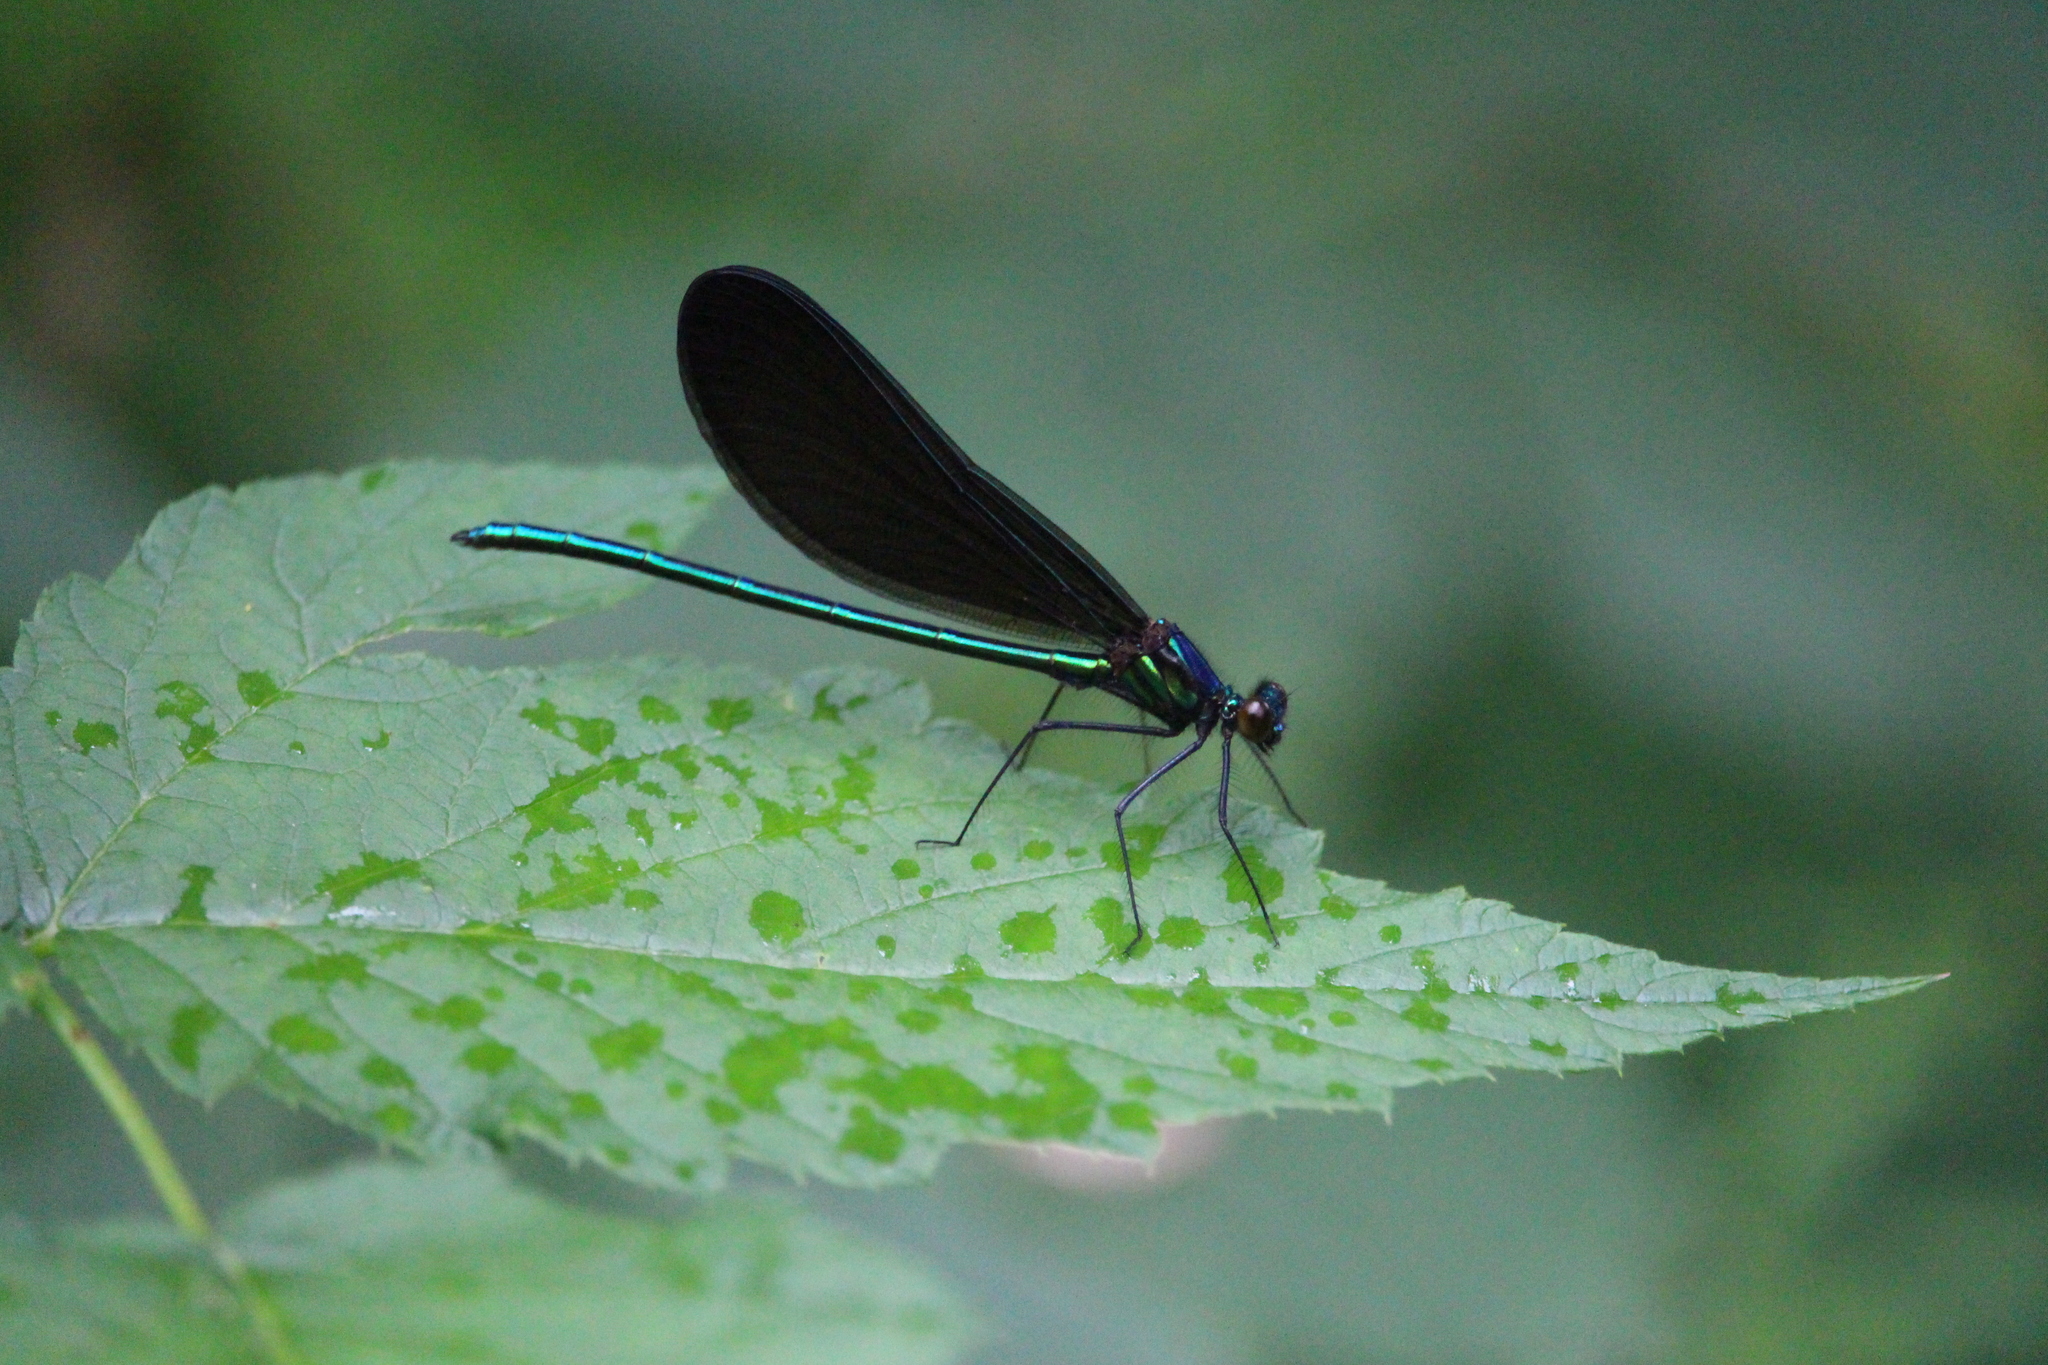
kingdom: Animalia
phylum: Arthropoda
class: Insecta
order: Odonata
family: Calopterygidae
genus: Calopteryx
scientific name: Calopteryx maculata
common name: Ebony jewelwing
